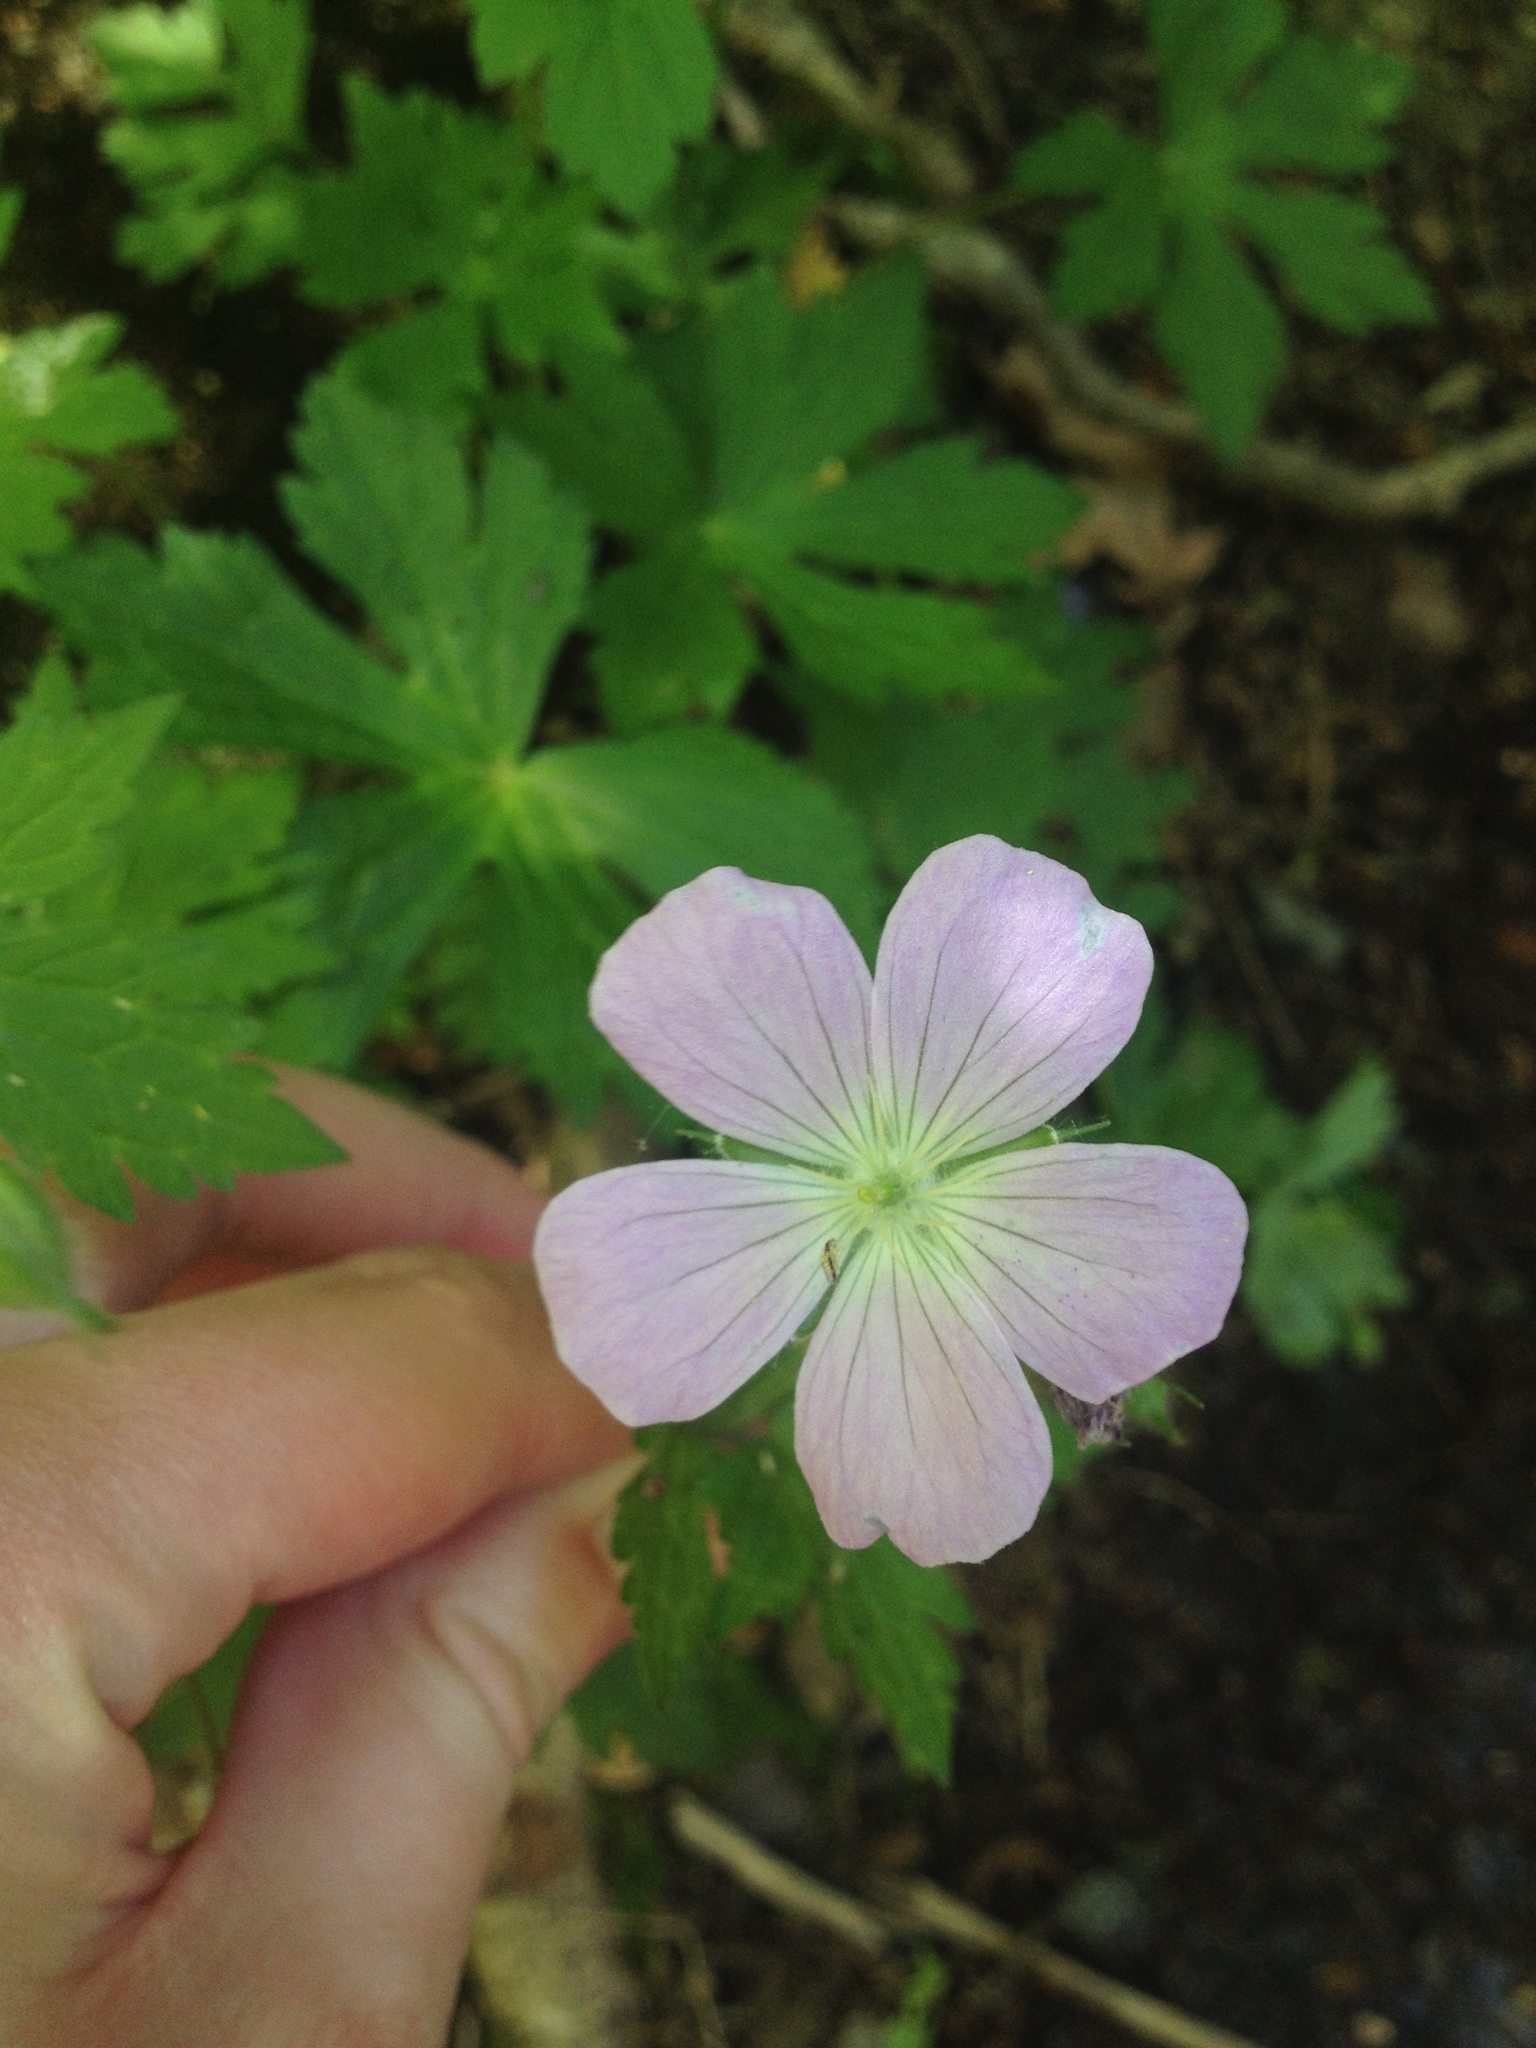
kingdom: Plantae
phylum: Tracheophyta
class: Magnoliopsida
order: Geraniales
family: Geraniaceae
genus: Geranium
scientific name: Geranium maculatum
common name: Spotted geranium
